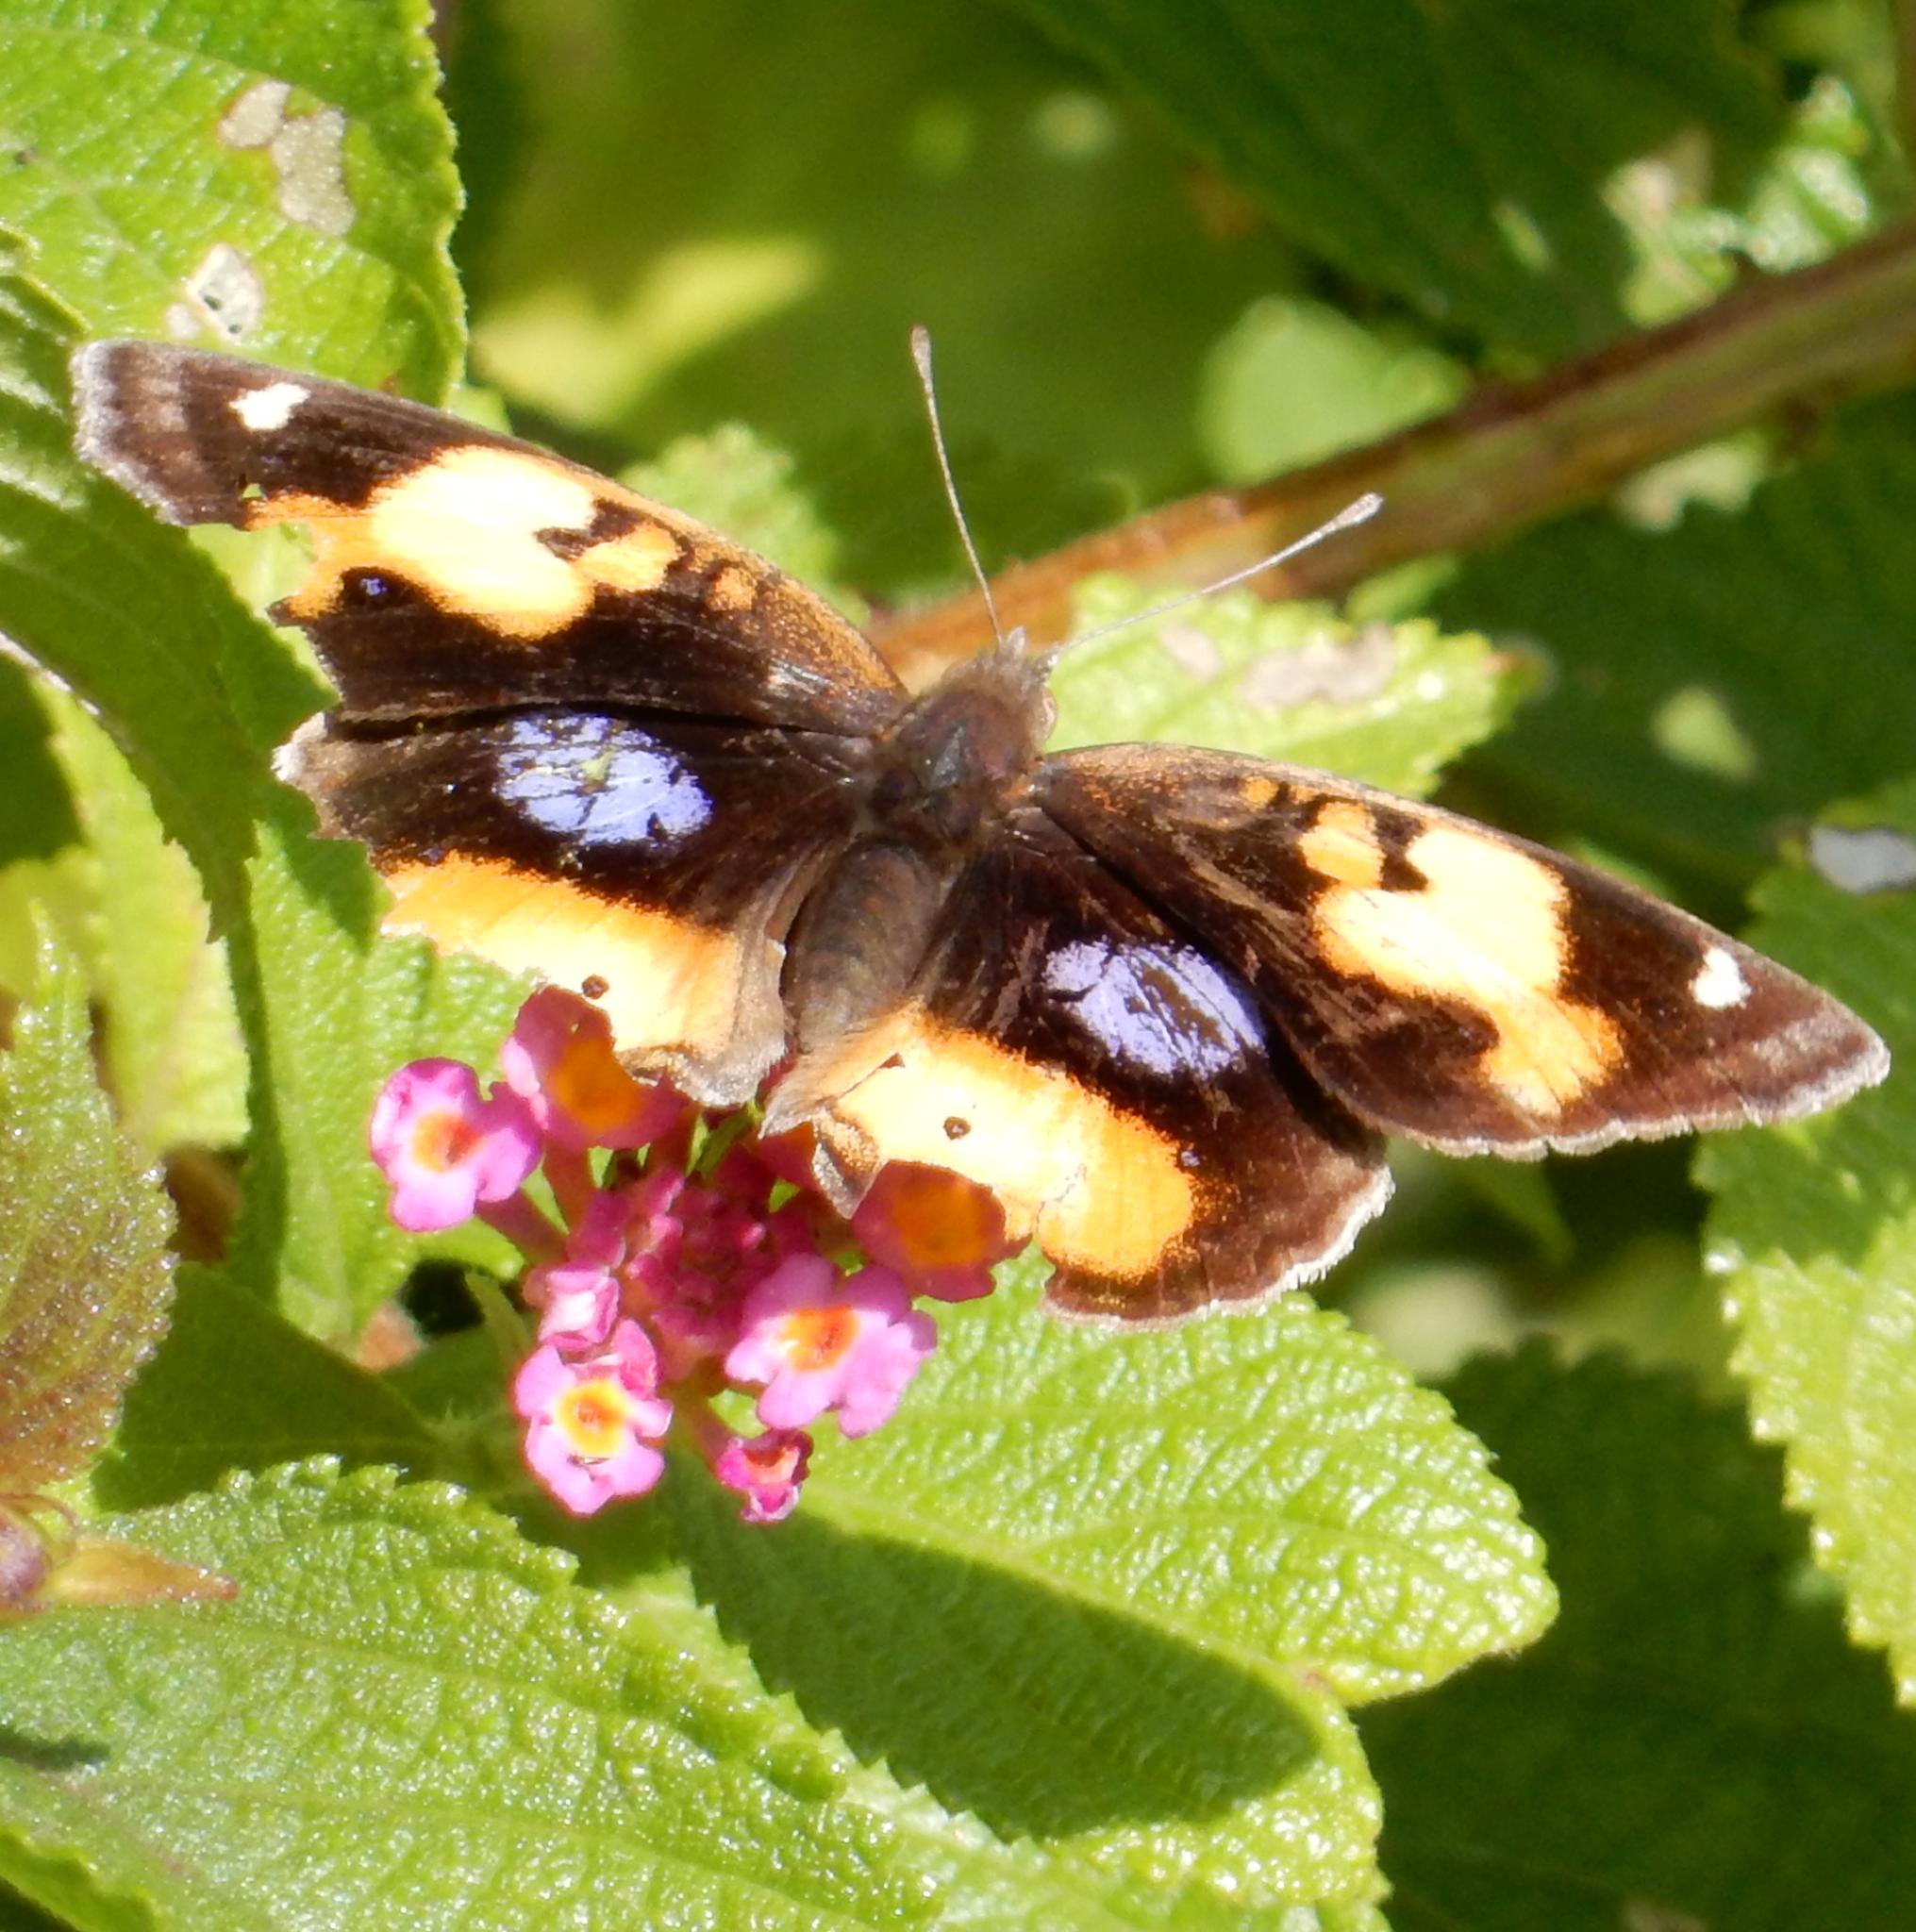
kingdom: Animalia
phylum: Arthropoda
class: Insecta
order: Lepidoptera
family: Nymphalidae
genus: Junonia
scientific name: Junonia hierta
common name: Yellow pansy
